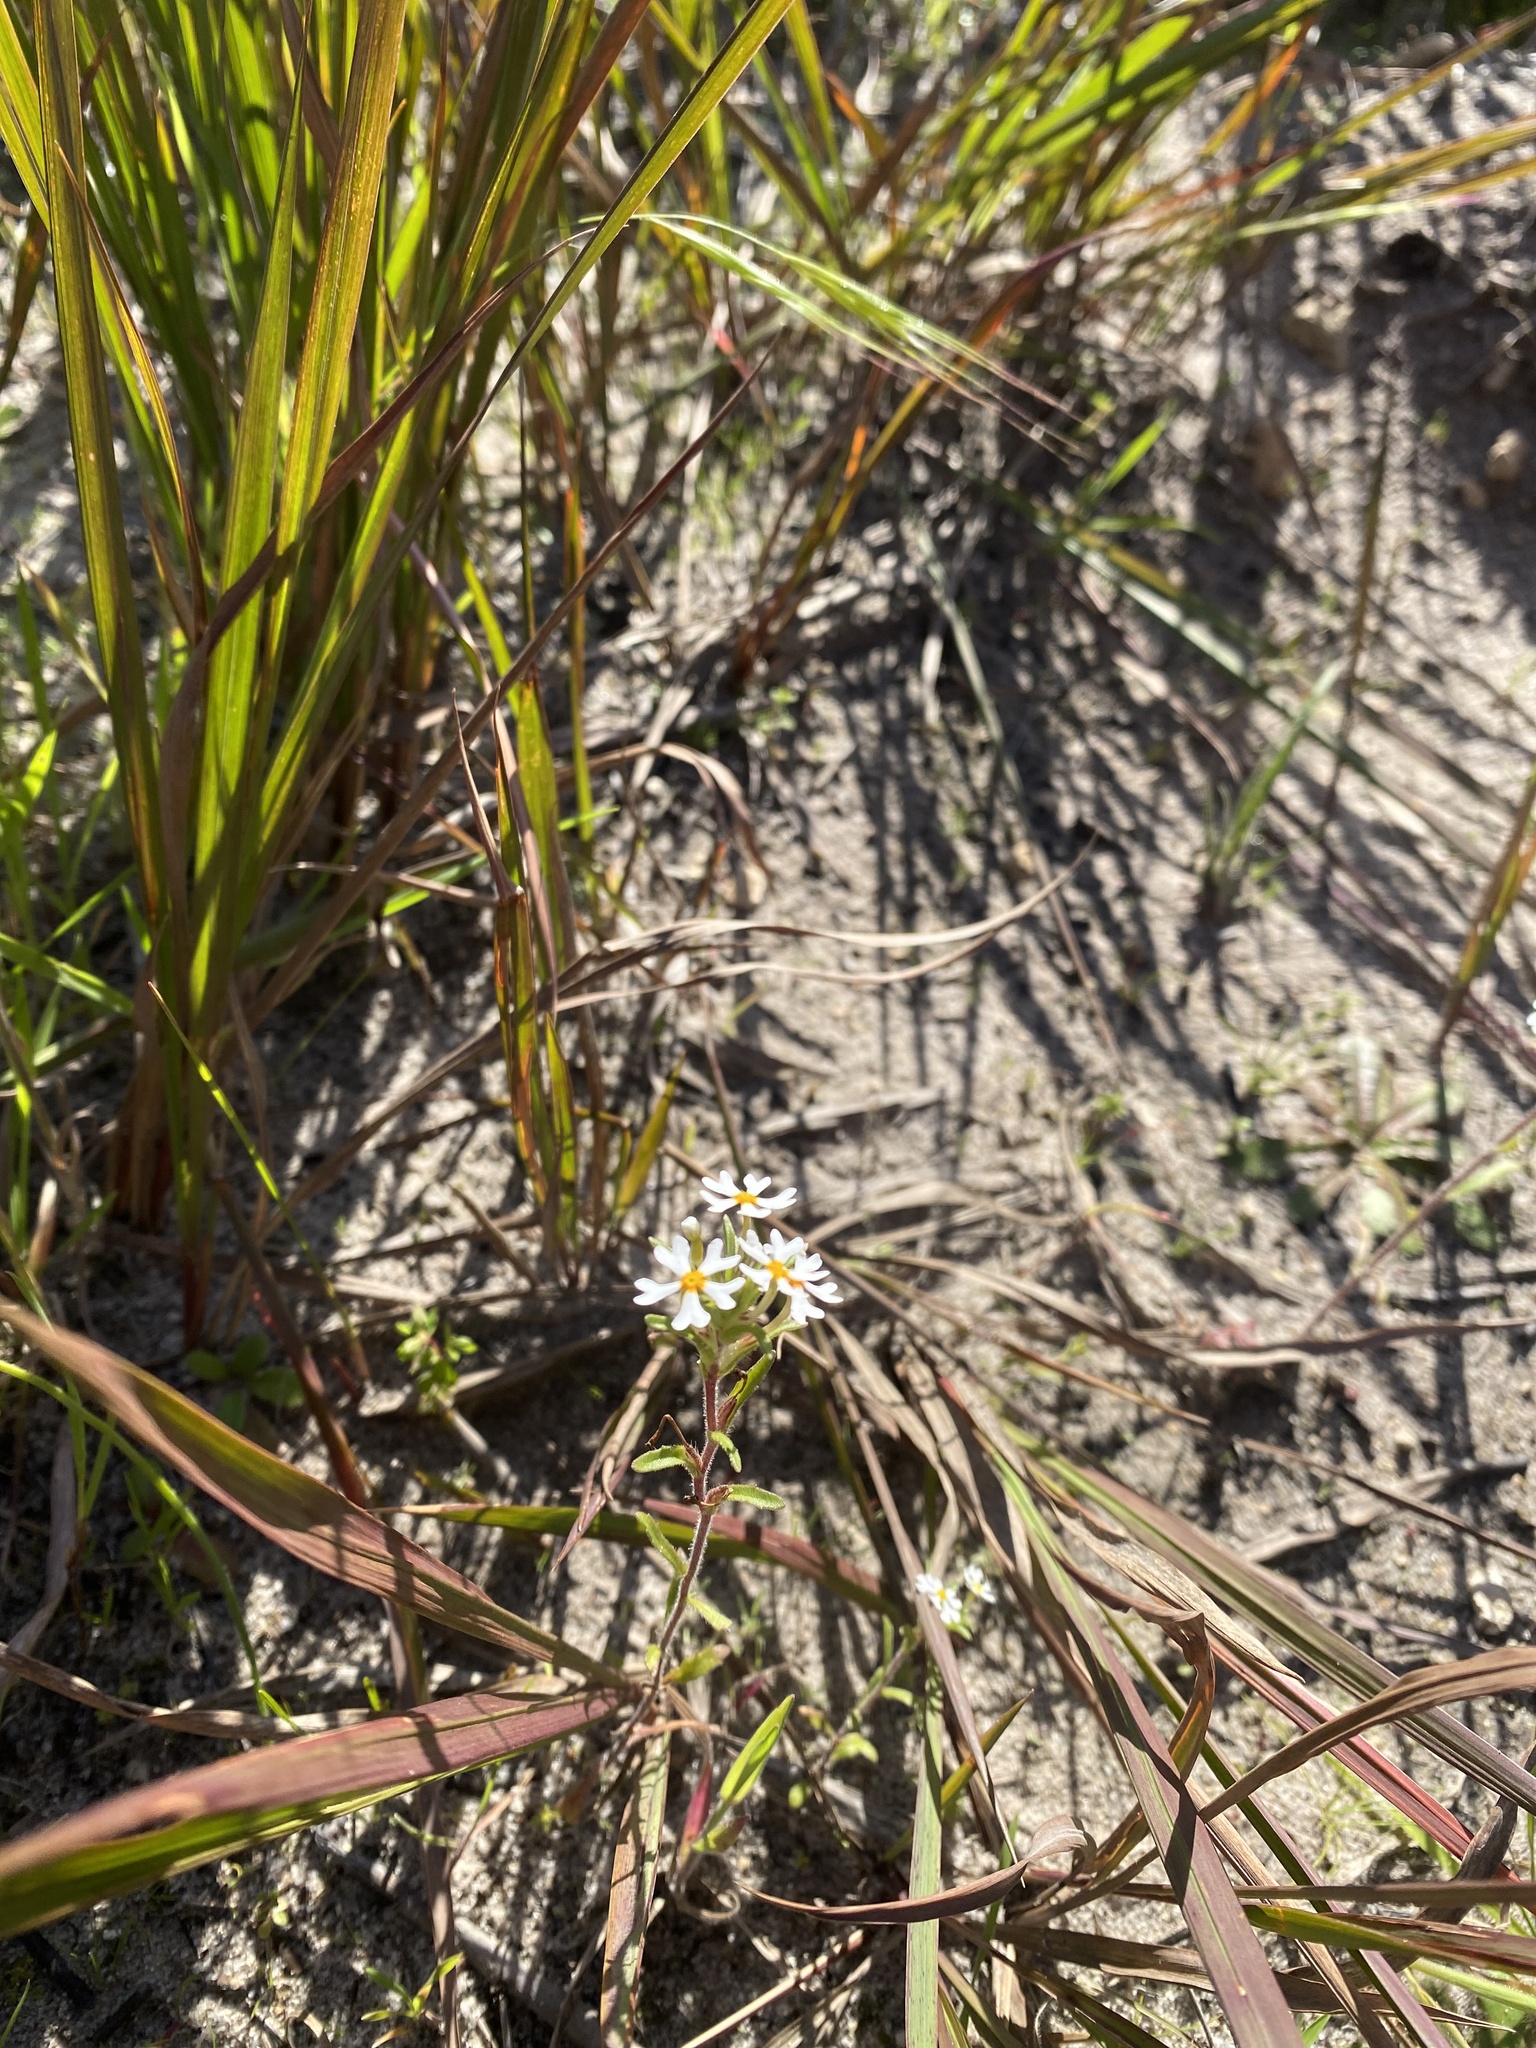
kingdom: Plantae
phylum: Tracheophyta
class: Magnoliopsida
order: Lamiales
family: Scrophulariaceae
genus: Zaluzianskya
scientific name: Zaluzianskya villosa
